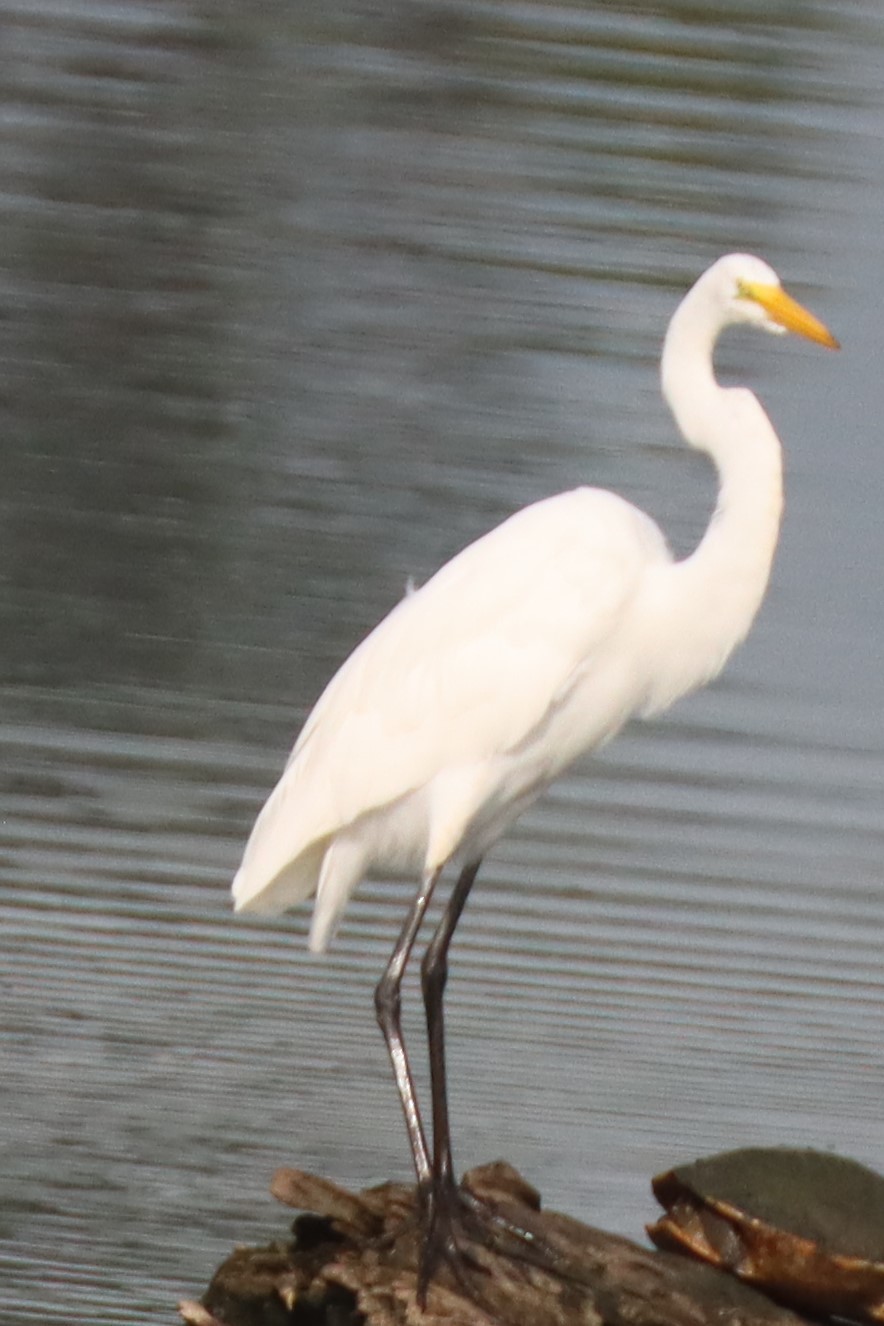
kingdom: Animalia
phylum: Chordata
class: Aves
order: Pelecaniformes
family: Ardeidae
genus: Ardea
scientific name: Ardea alba
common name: Great egret
